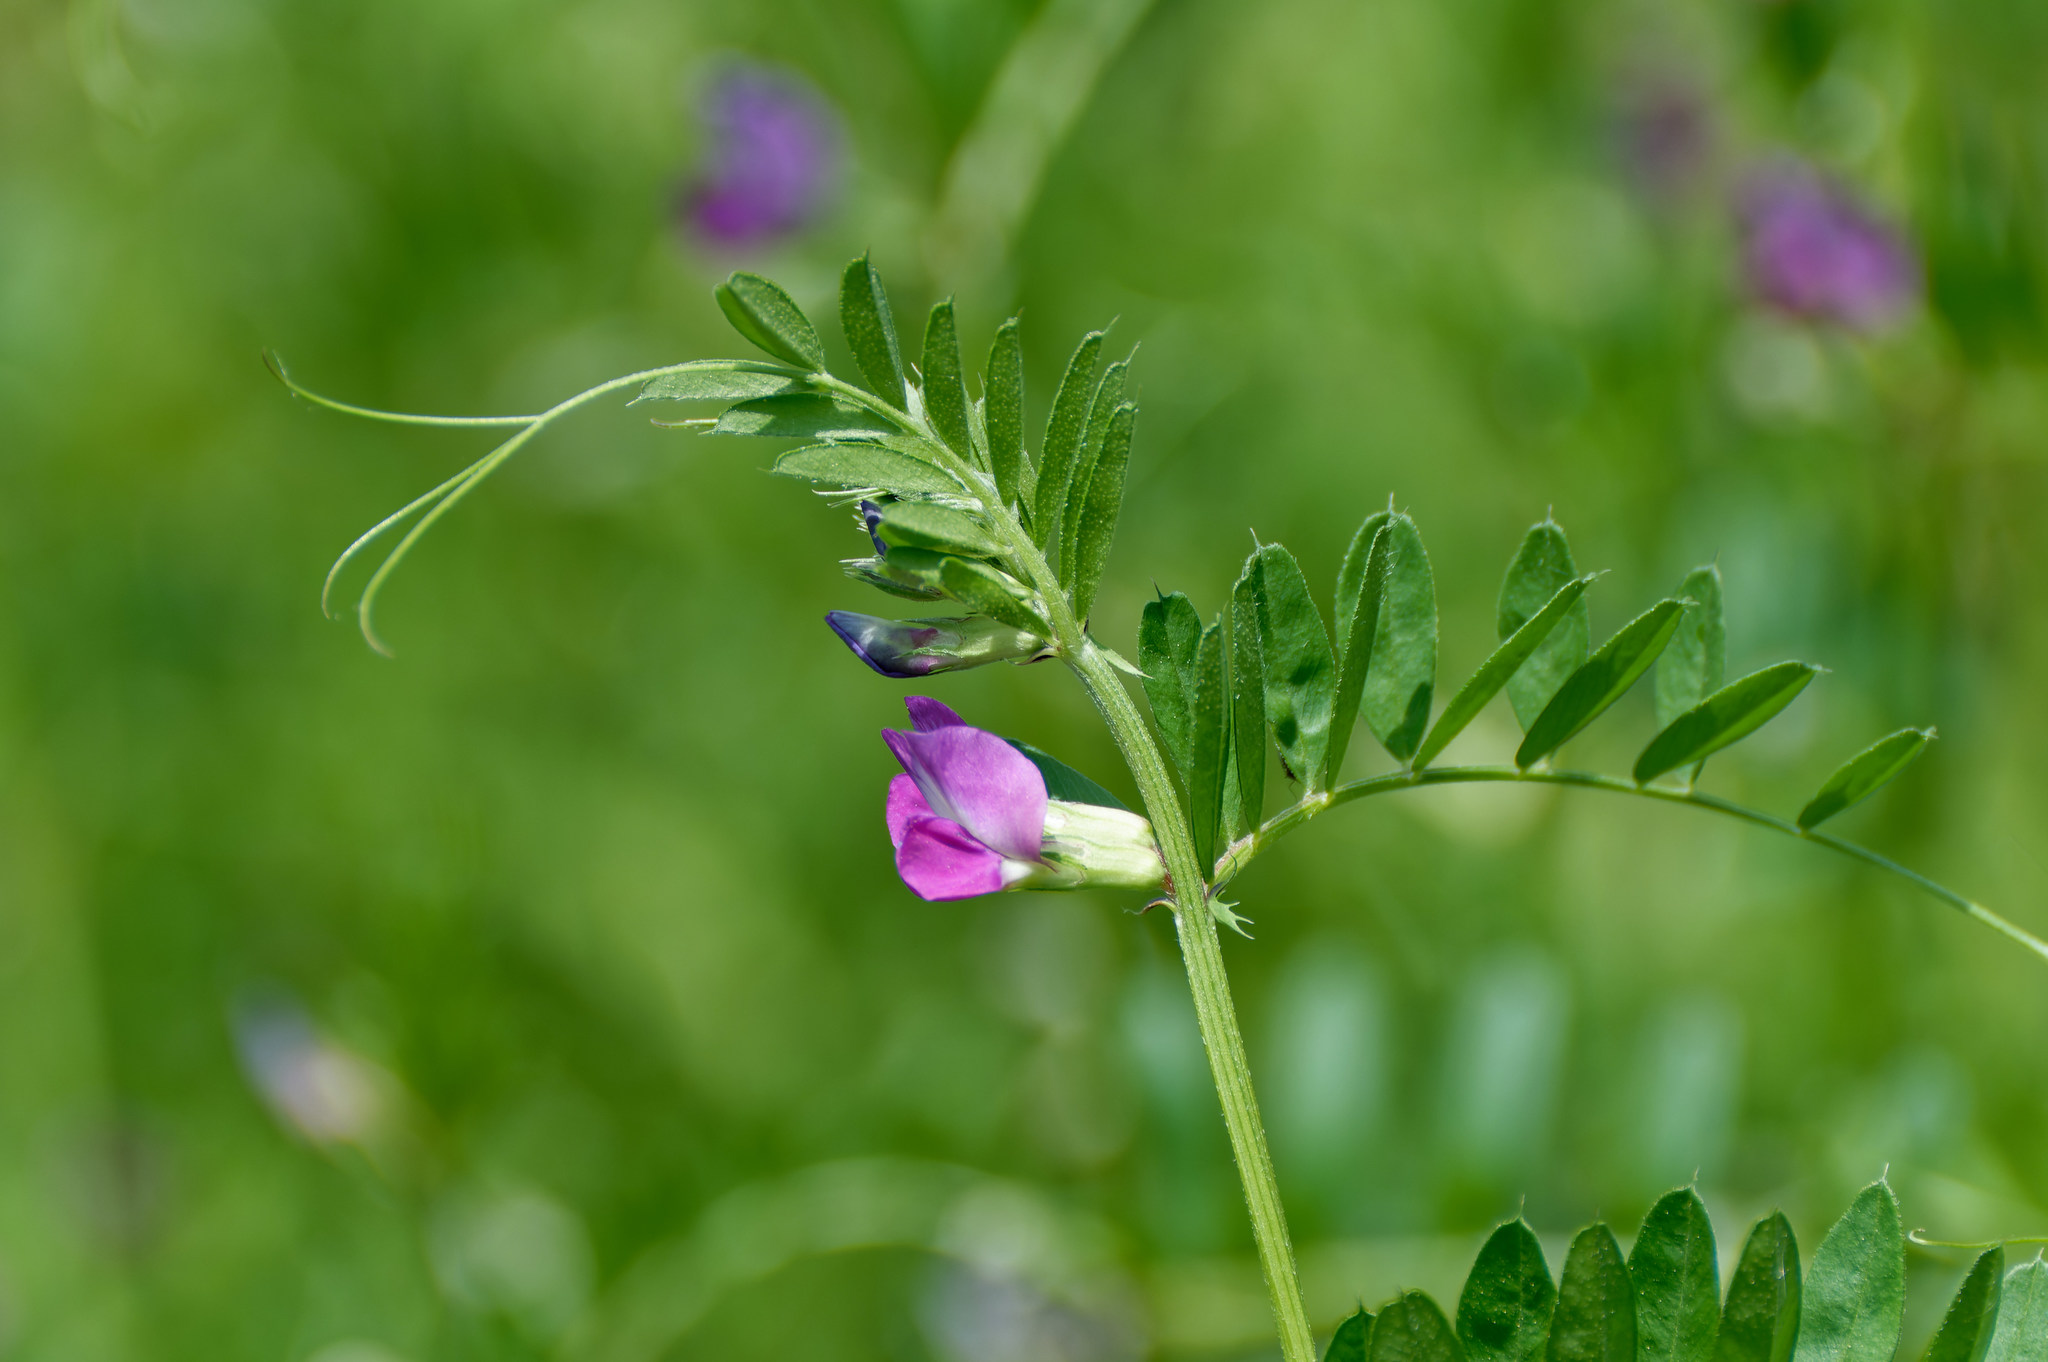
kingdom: Plantae
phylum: Tracheophyta
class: Magnoliopsida
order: Fabales
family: Fabaceae
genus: Vicia
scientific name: Vicia sativa
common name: Garden vetch
